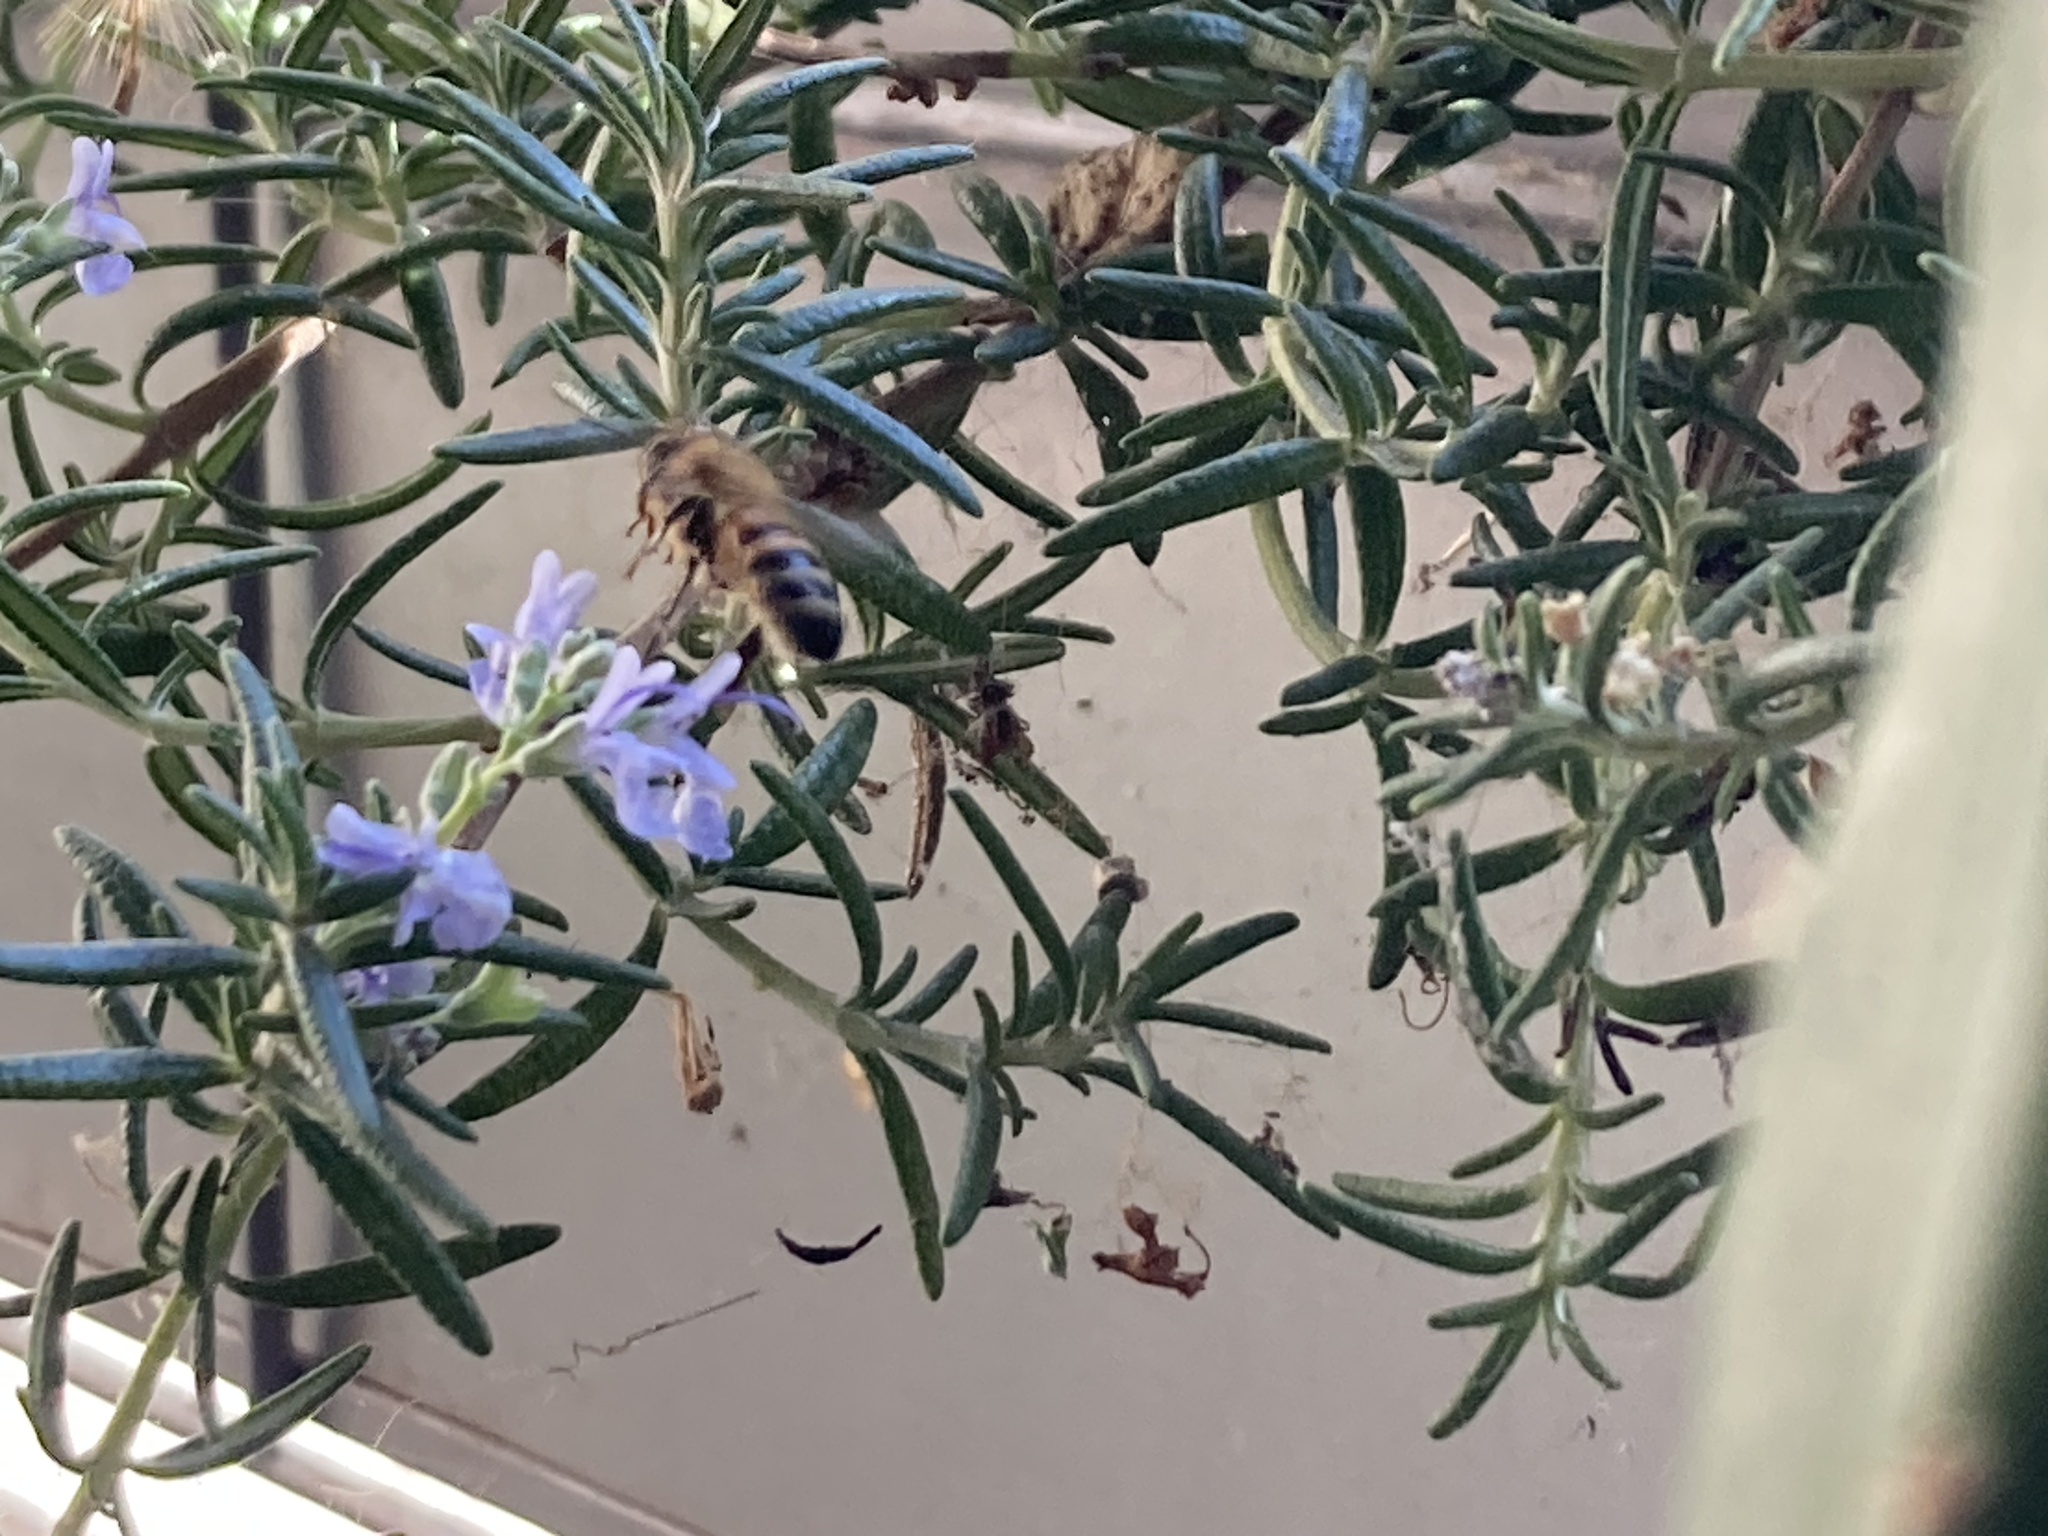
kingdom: Animalia
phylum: Arthropoda
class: Insecta
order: Hymenoptera
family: Apidae
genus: Apis
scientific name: Apis mellifera
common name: Honey bee
